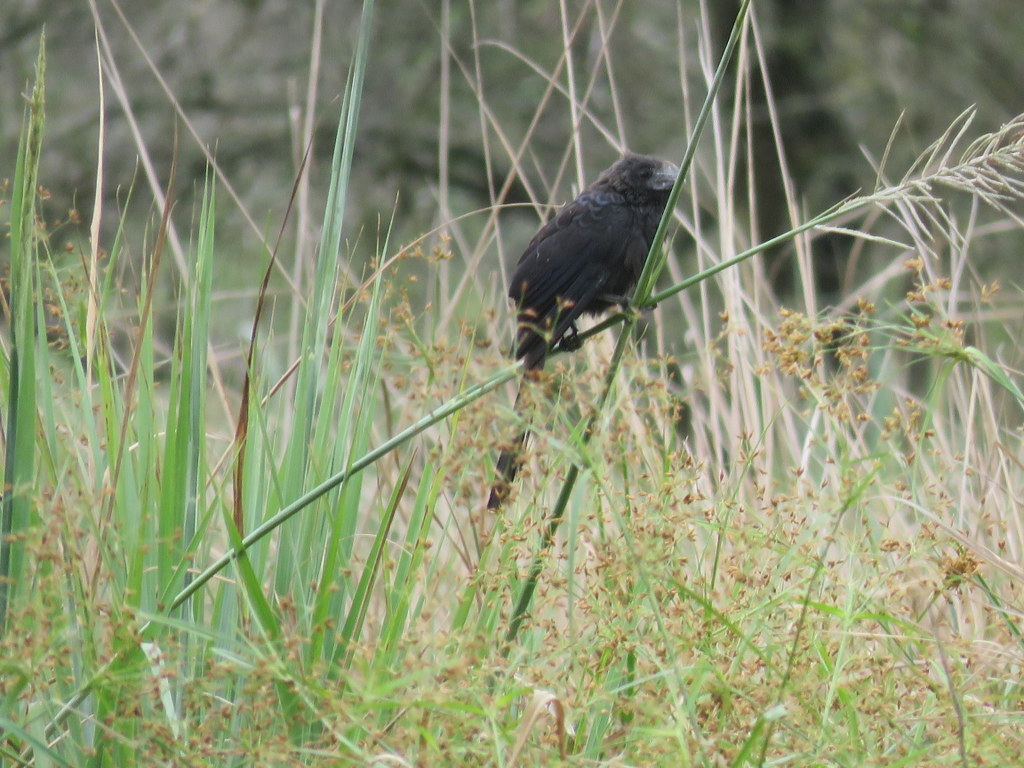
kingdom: Animalia
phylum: Chordata
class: Aves
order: Cuculiformes
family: Cuculidae
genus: Crotophaga
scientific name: Crotophaga ani
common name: Smooth-billed ani
